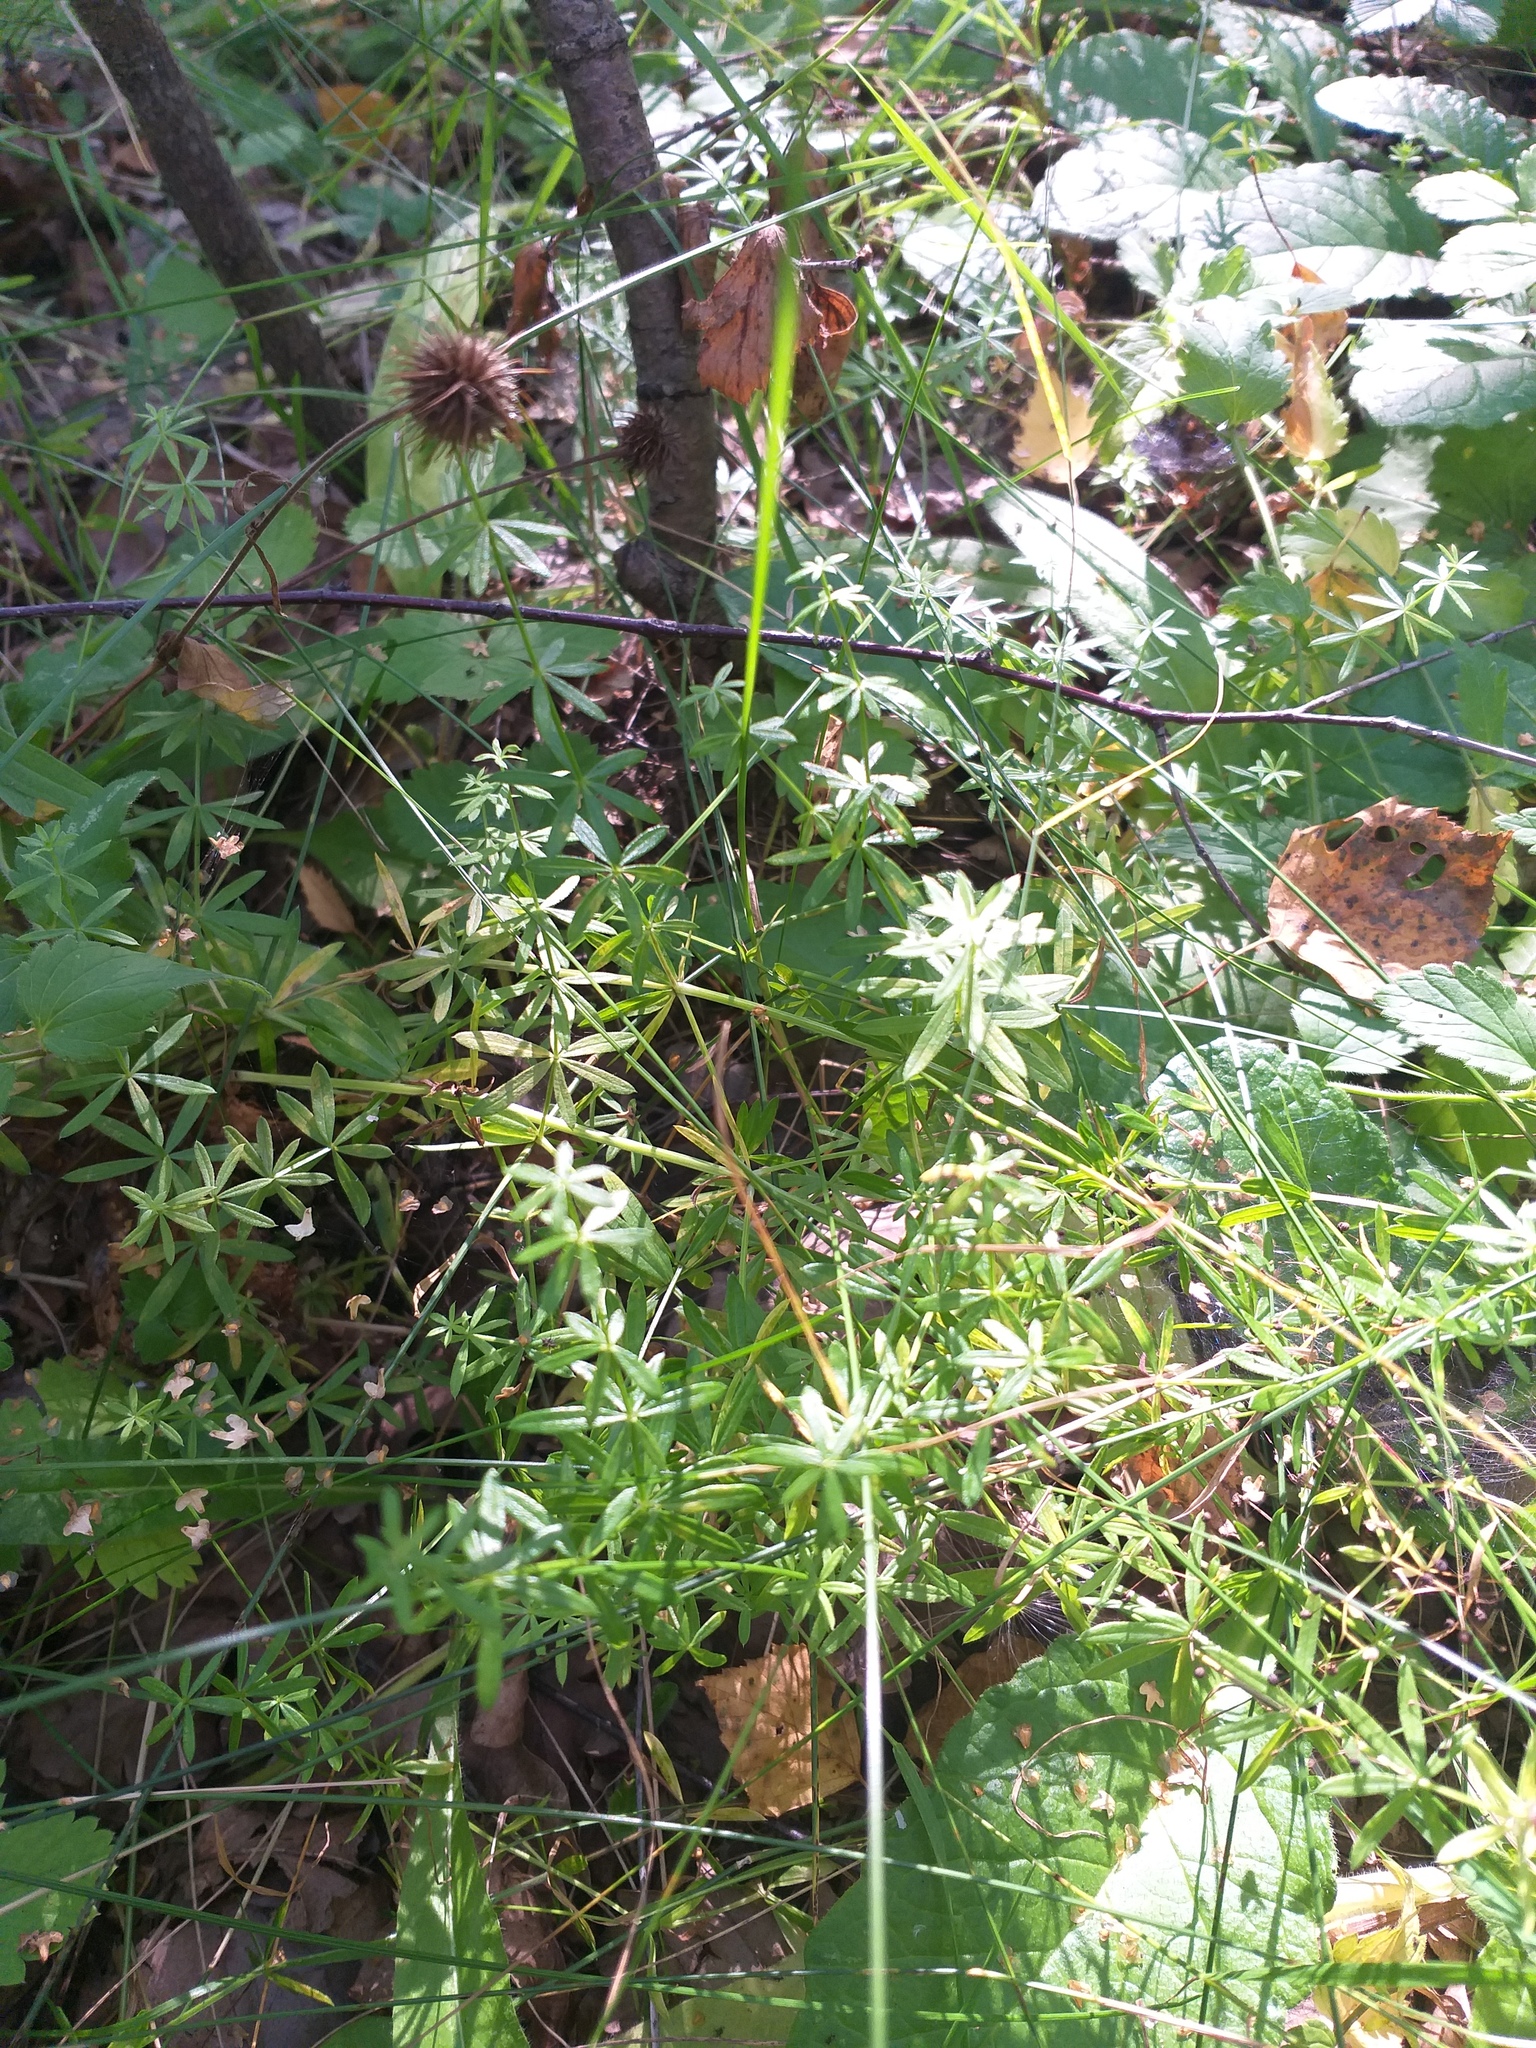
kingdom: Plantae
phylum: Tracheophyta
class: Magnoliopsida
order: Gentianales
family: Rubiaceae
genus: Galium
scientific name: Galium mollugo
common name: Hedge bedstraw
